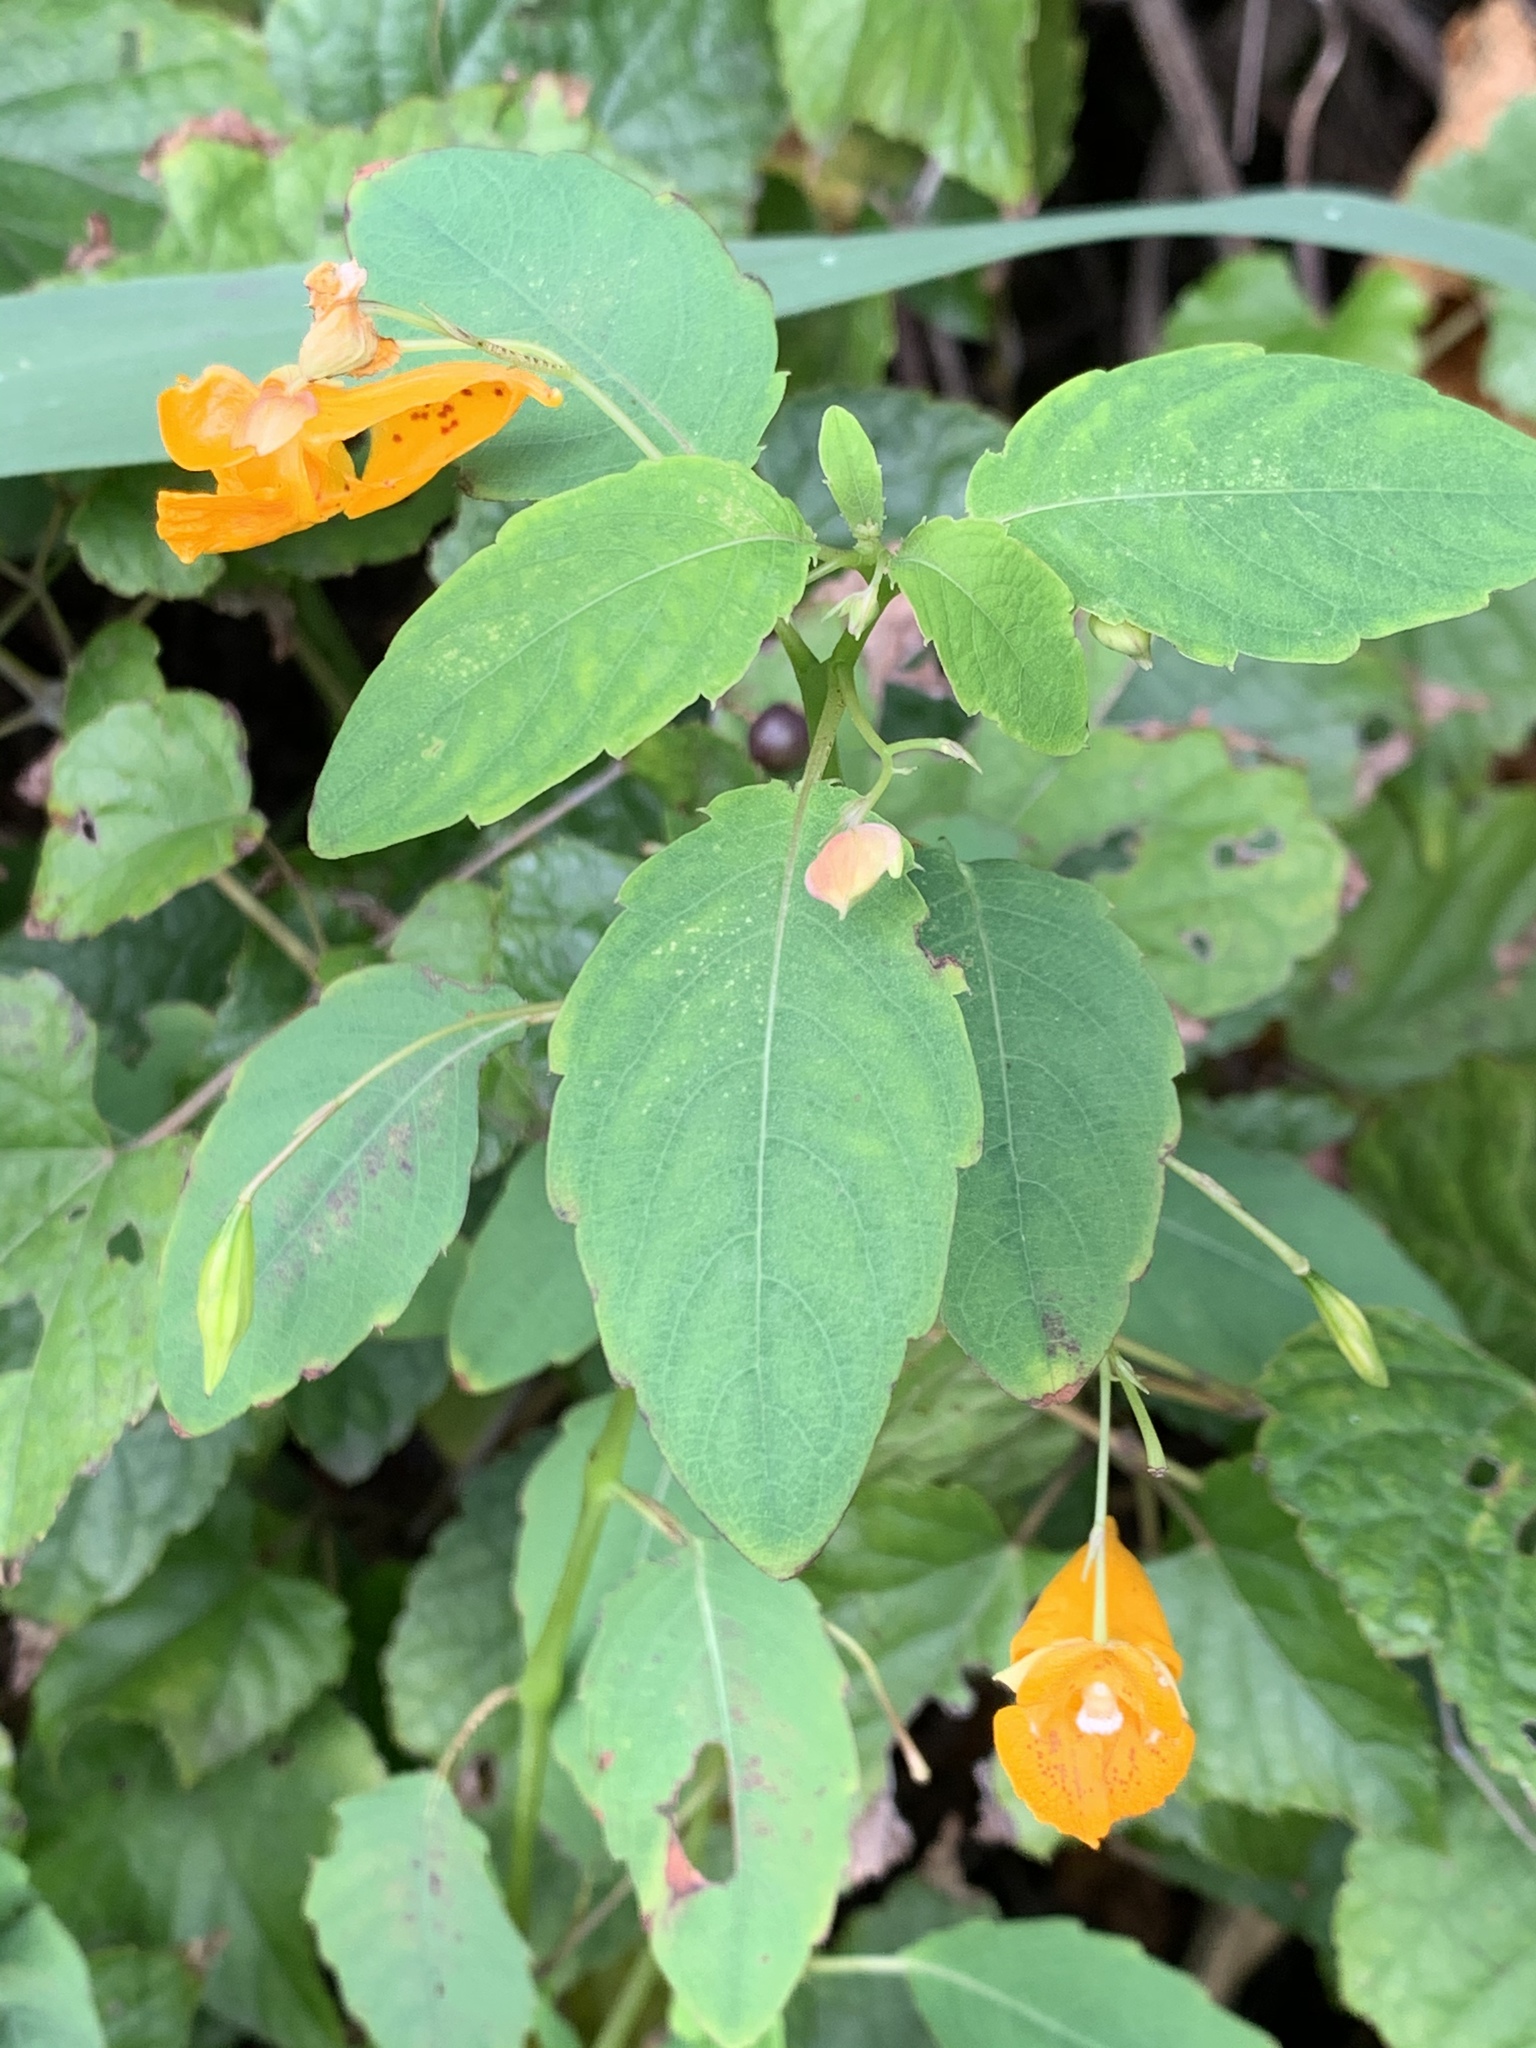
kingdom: Plantae
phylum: Tracheophyta
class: Magnoliopsida
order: Ericales
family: Balsaminaceae
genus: Impatiens
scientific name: Impatiens capensis
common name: Orange balsam
